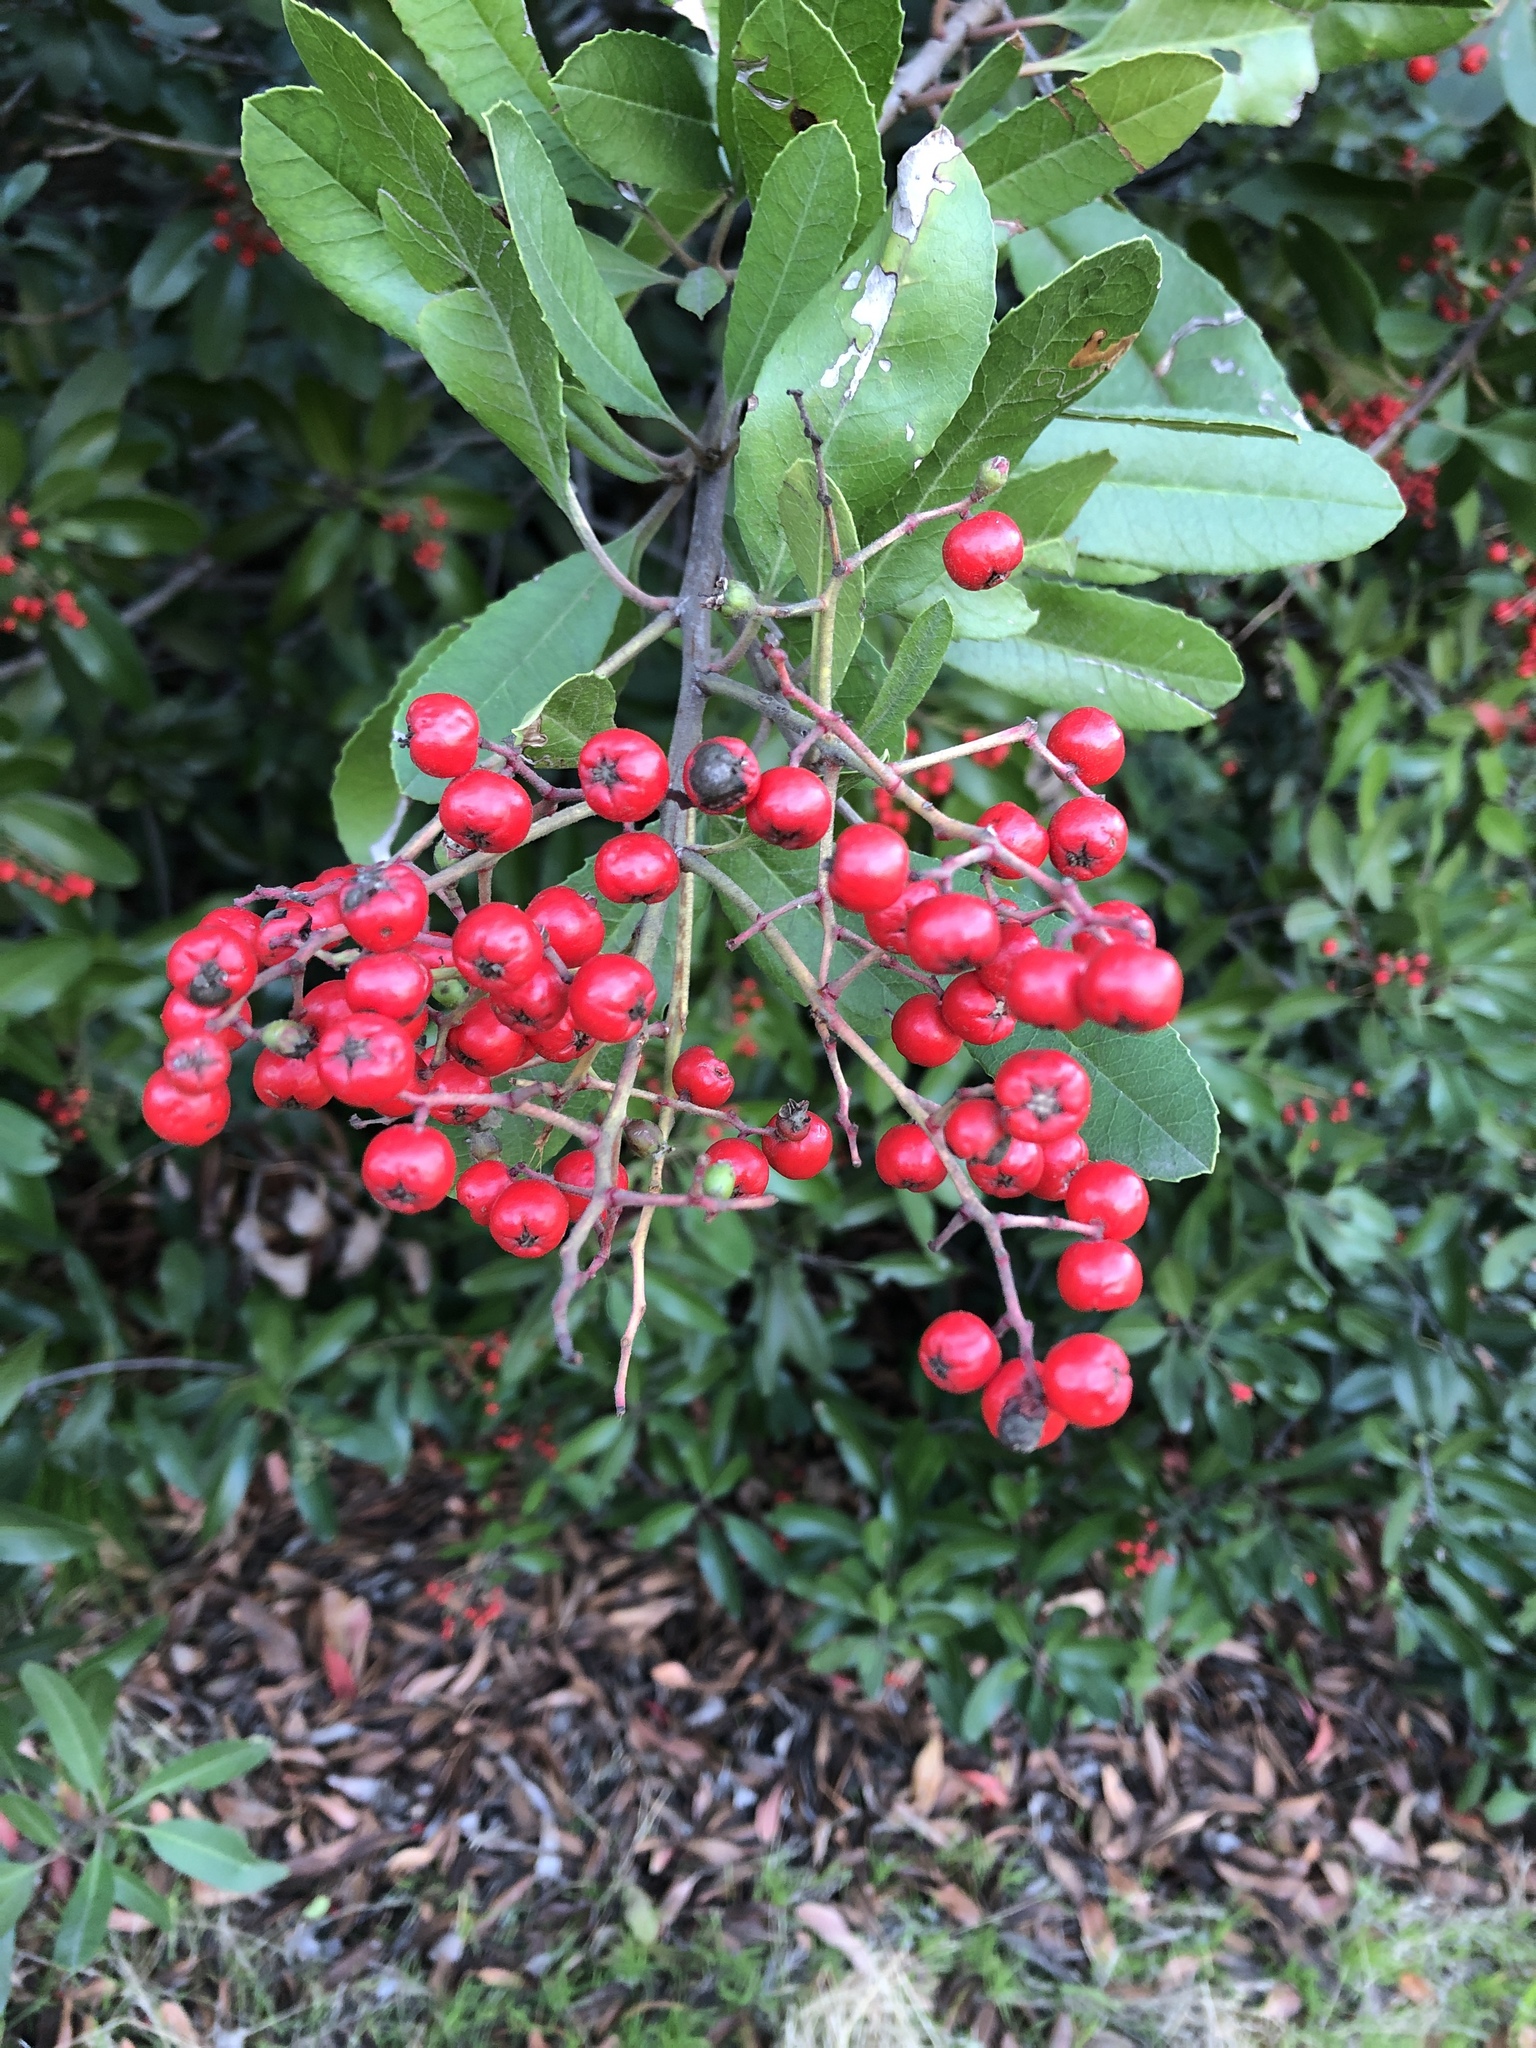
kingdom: Plantae
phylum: Tracheophyta
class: Magnoliopsida
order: Rosales
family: Rosaceae
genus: Heteromeles
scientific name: Heteromeles arbutifolia
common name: California-holly
